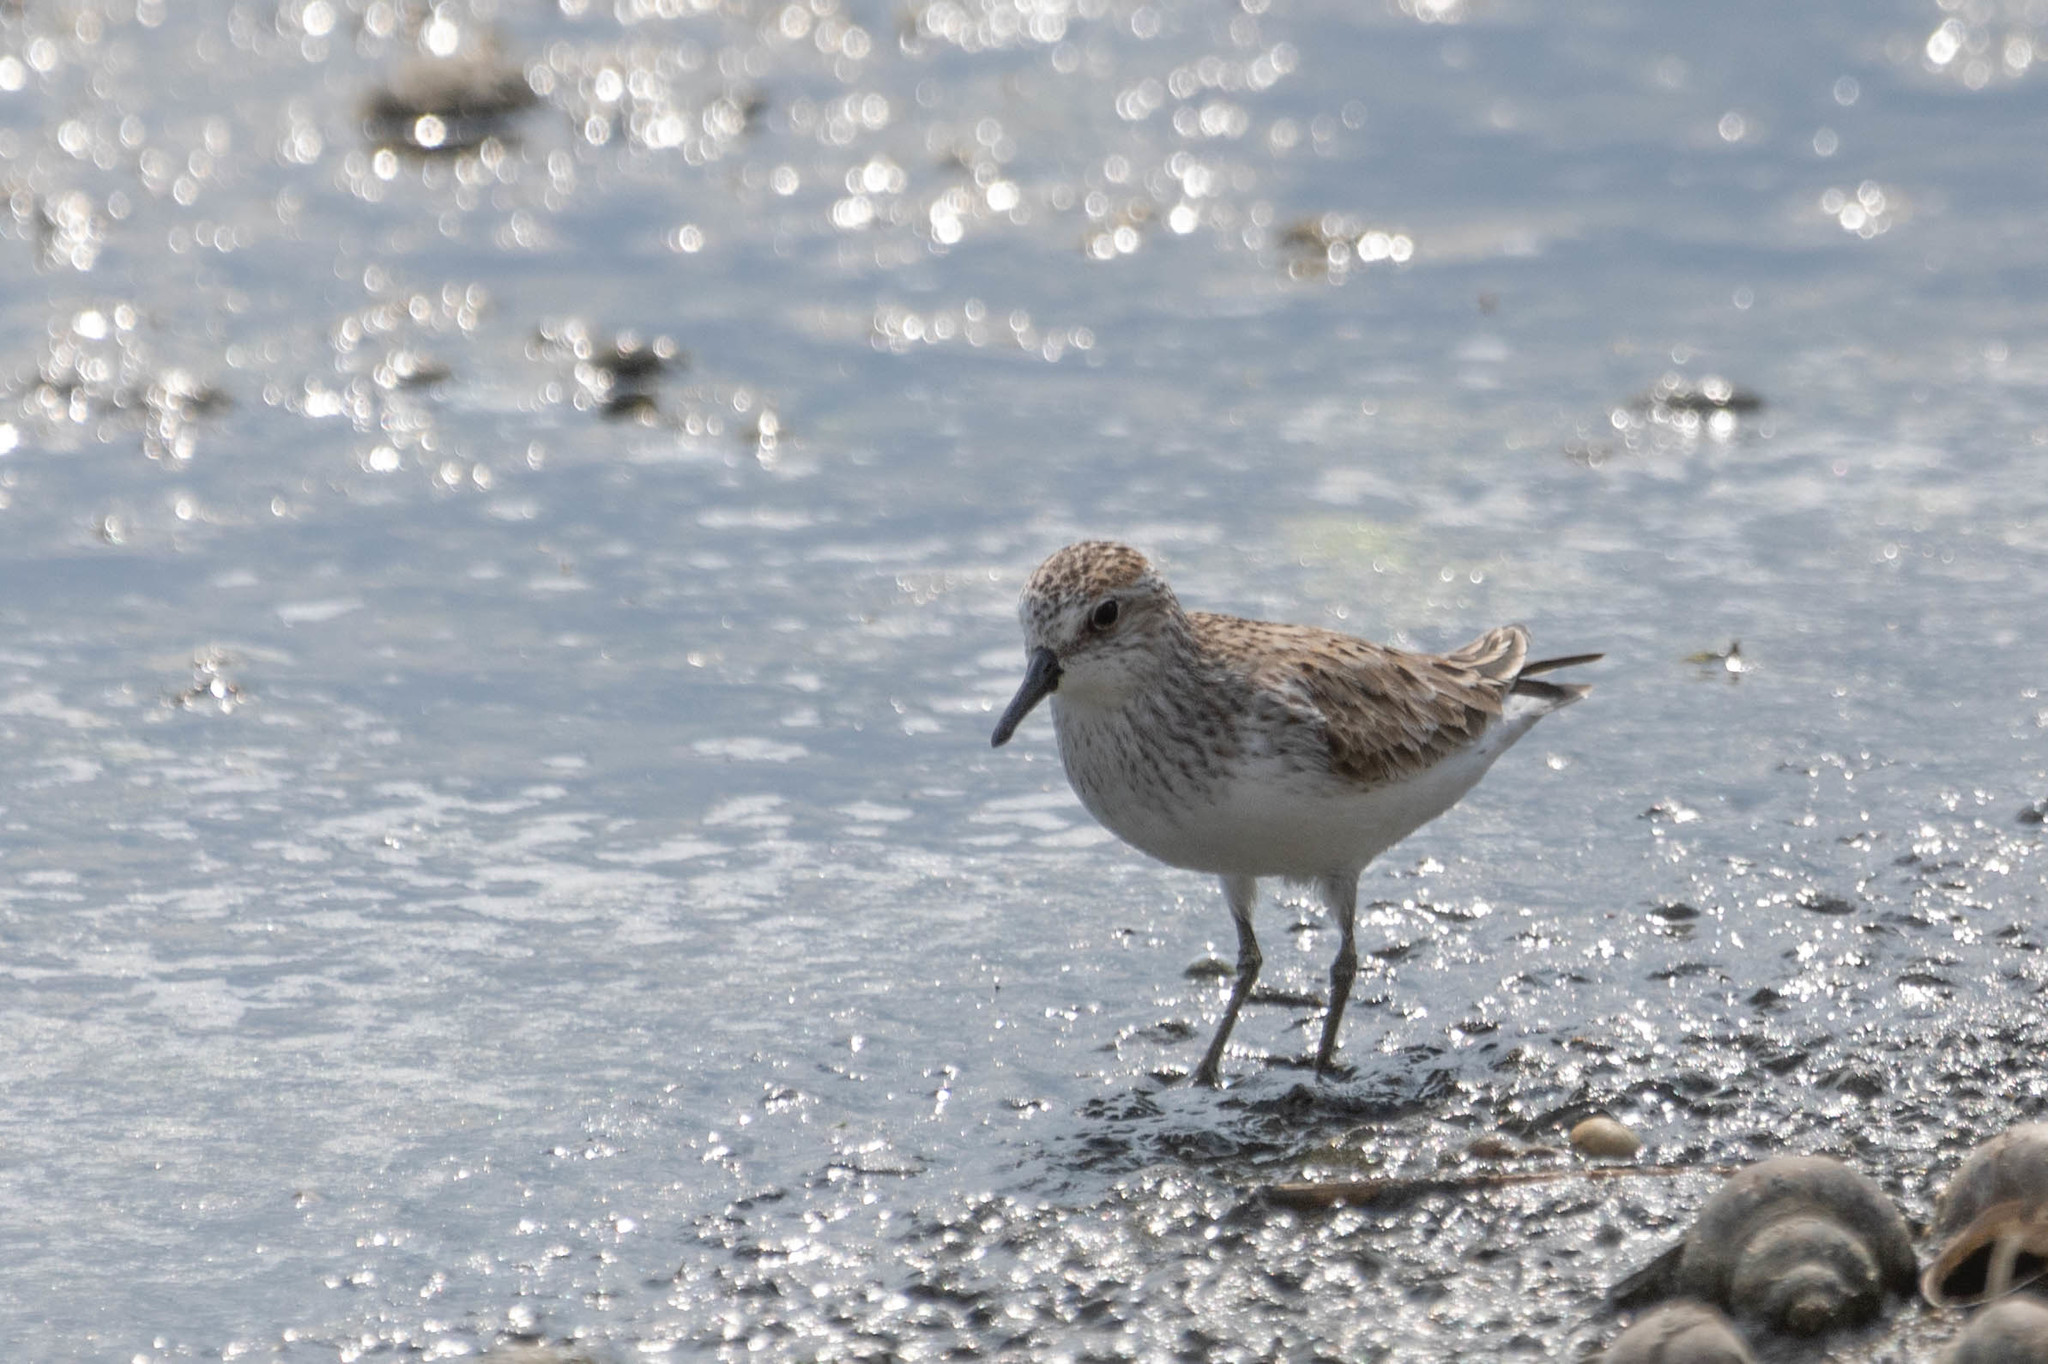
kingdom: Animalia
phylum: Chordata
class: Aves
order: Charadriiformes
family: Scolopacidae
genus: Calidris
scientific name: Calidris pusilla
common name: Semipalmated sandpiper
